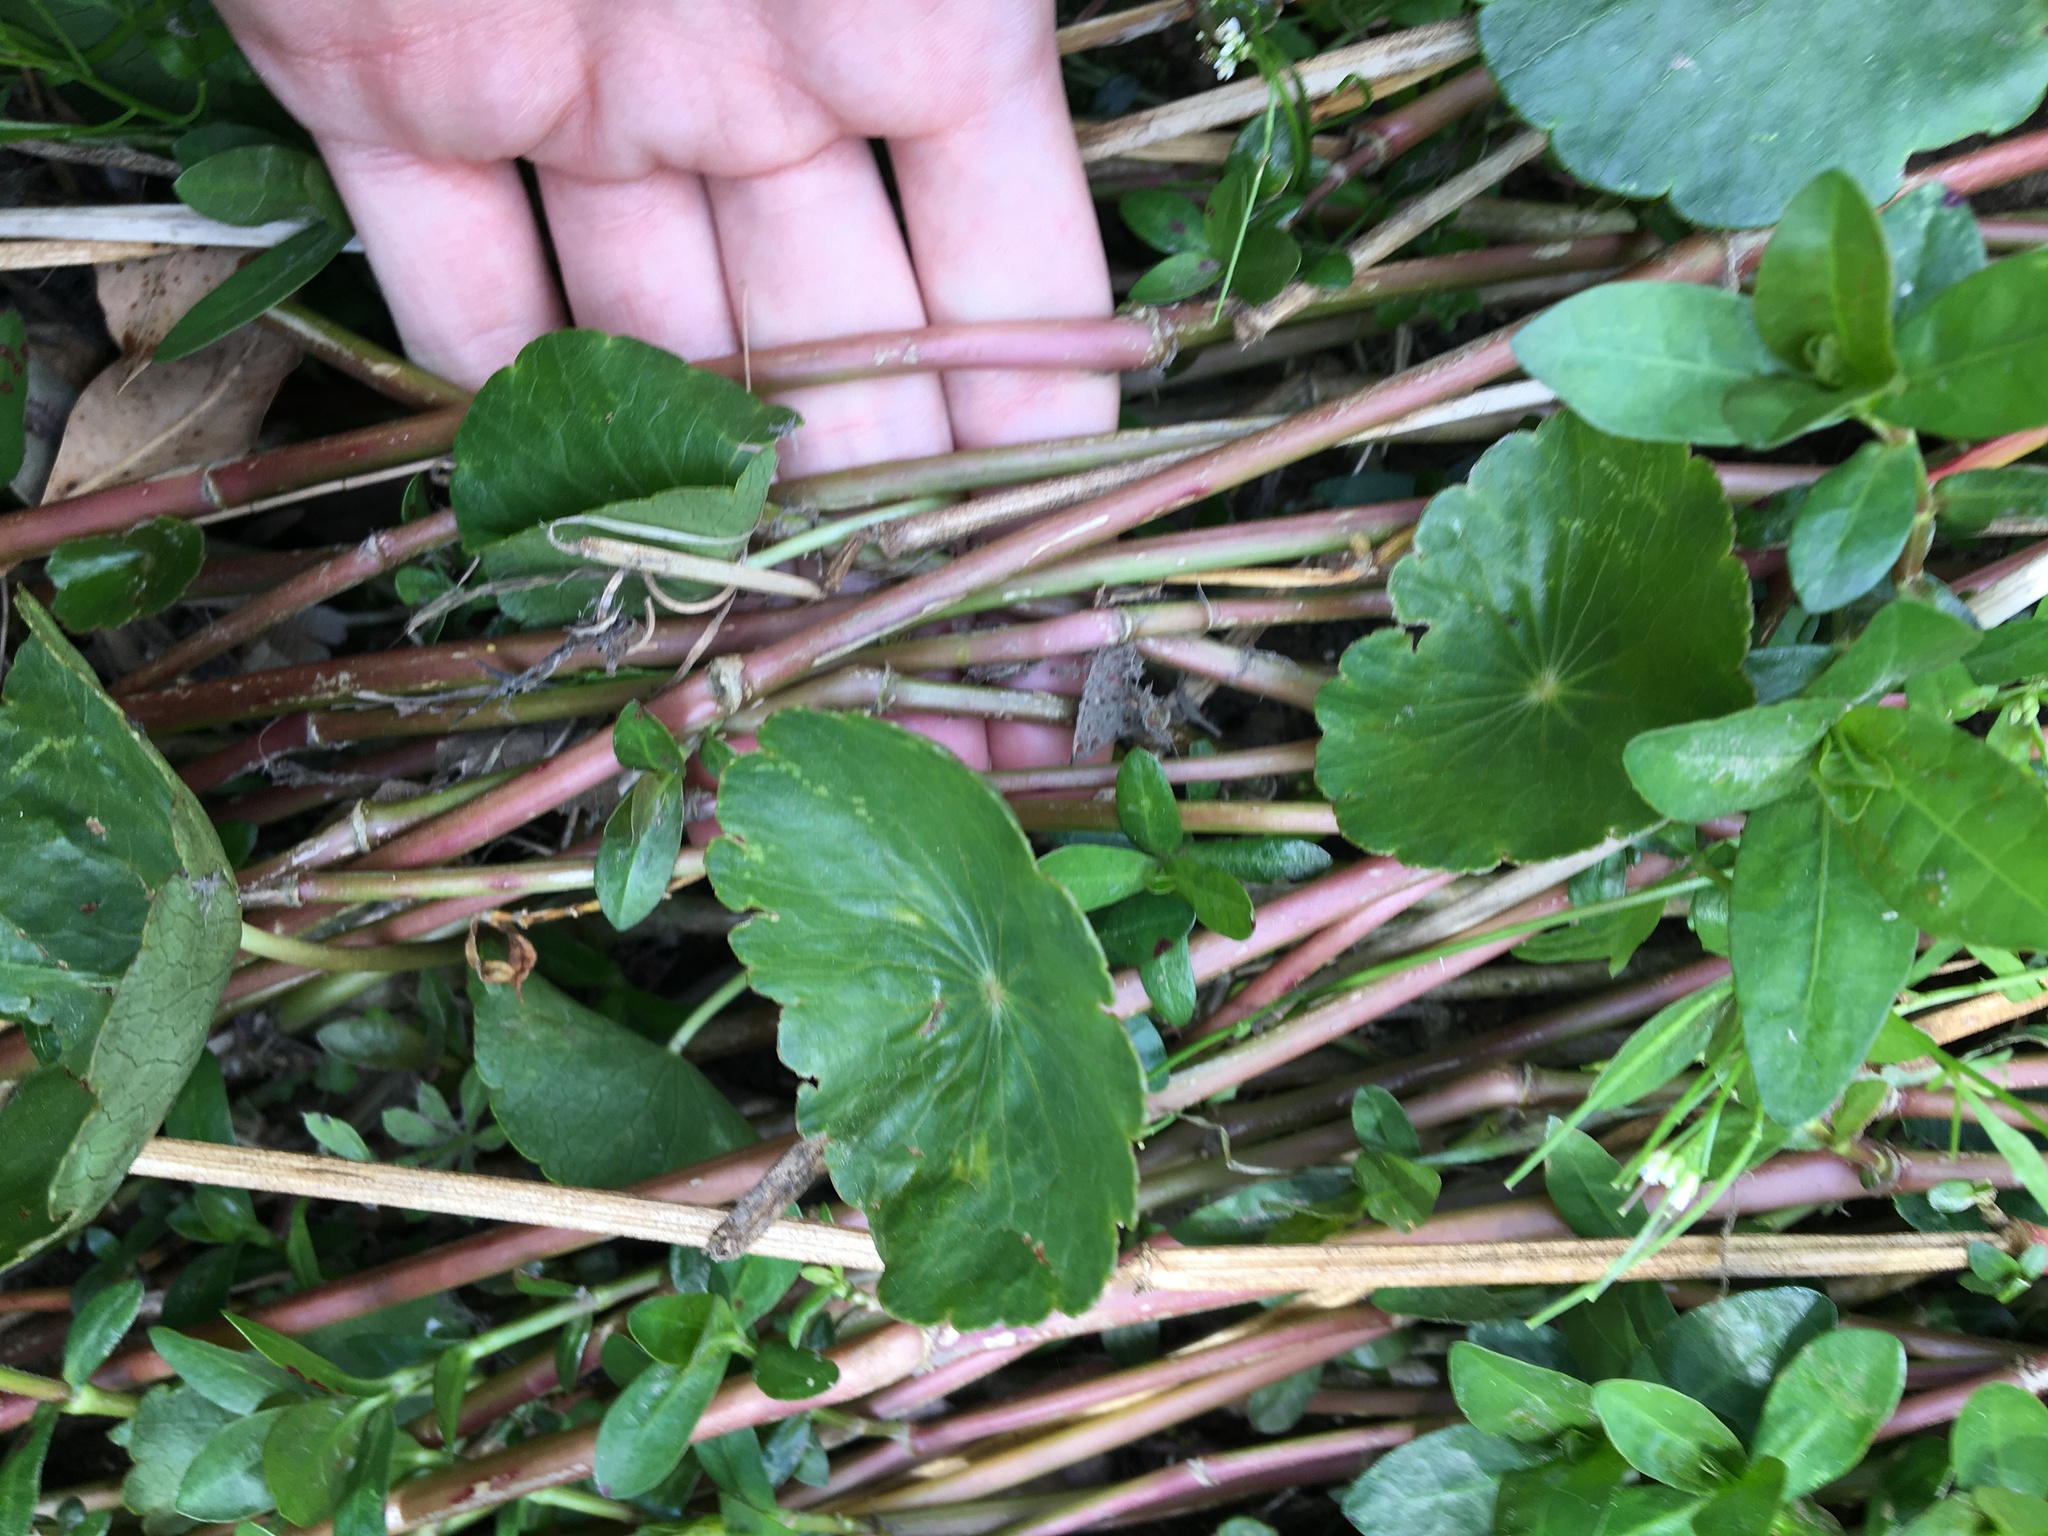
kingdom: Plantae
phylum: Tracheophyta
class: Magnoliopsida
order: Caryophyllales
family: Amaranthaceae
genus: Alternanthera
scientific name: Alternanthera philoxeroides
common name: Alligatorweed
